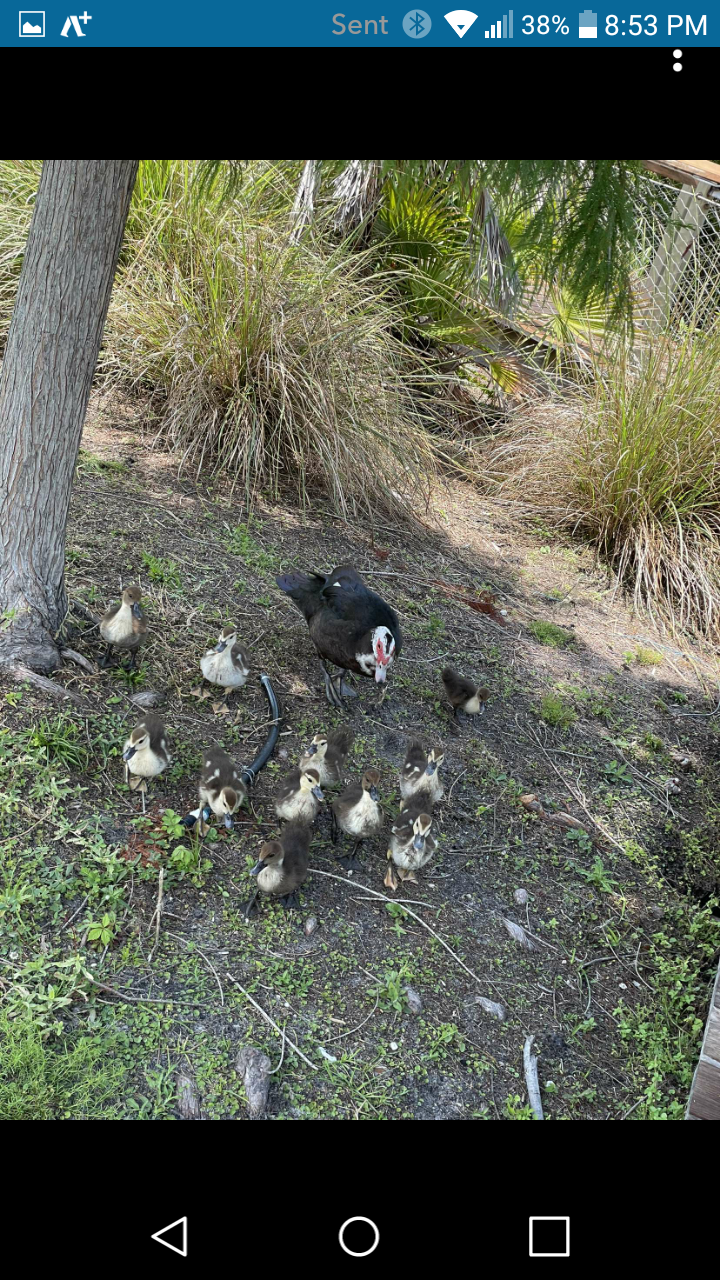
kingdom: Animalia
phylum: Chordata
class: Aves
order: Anseriformes
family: Anatidae
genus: Cairina
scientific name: Cairina moschata
